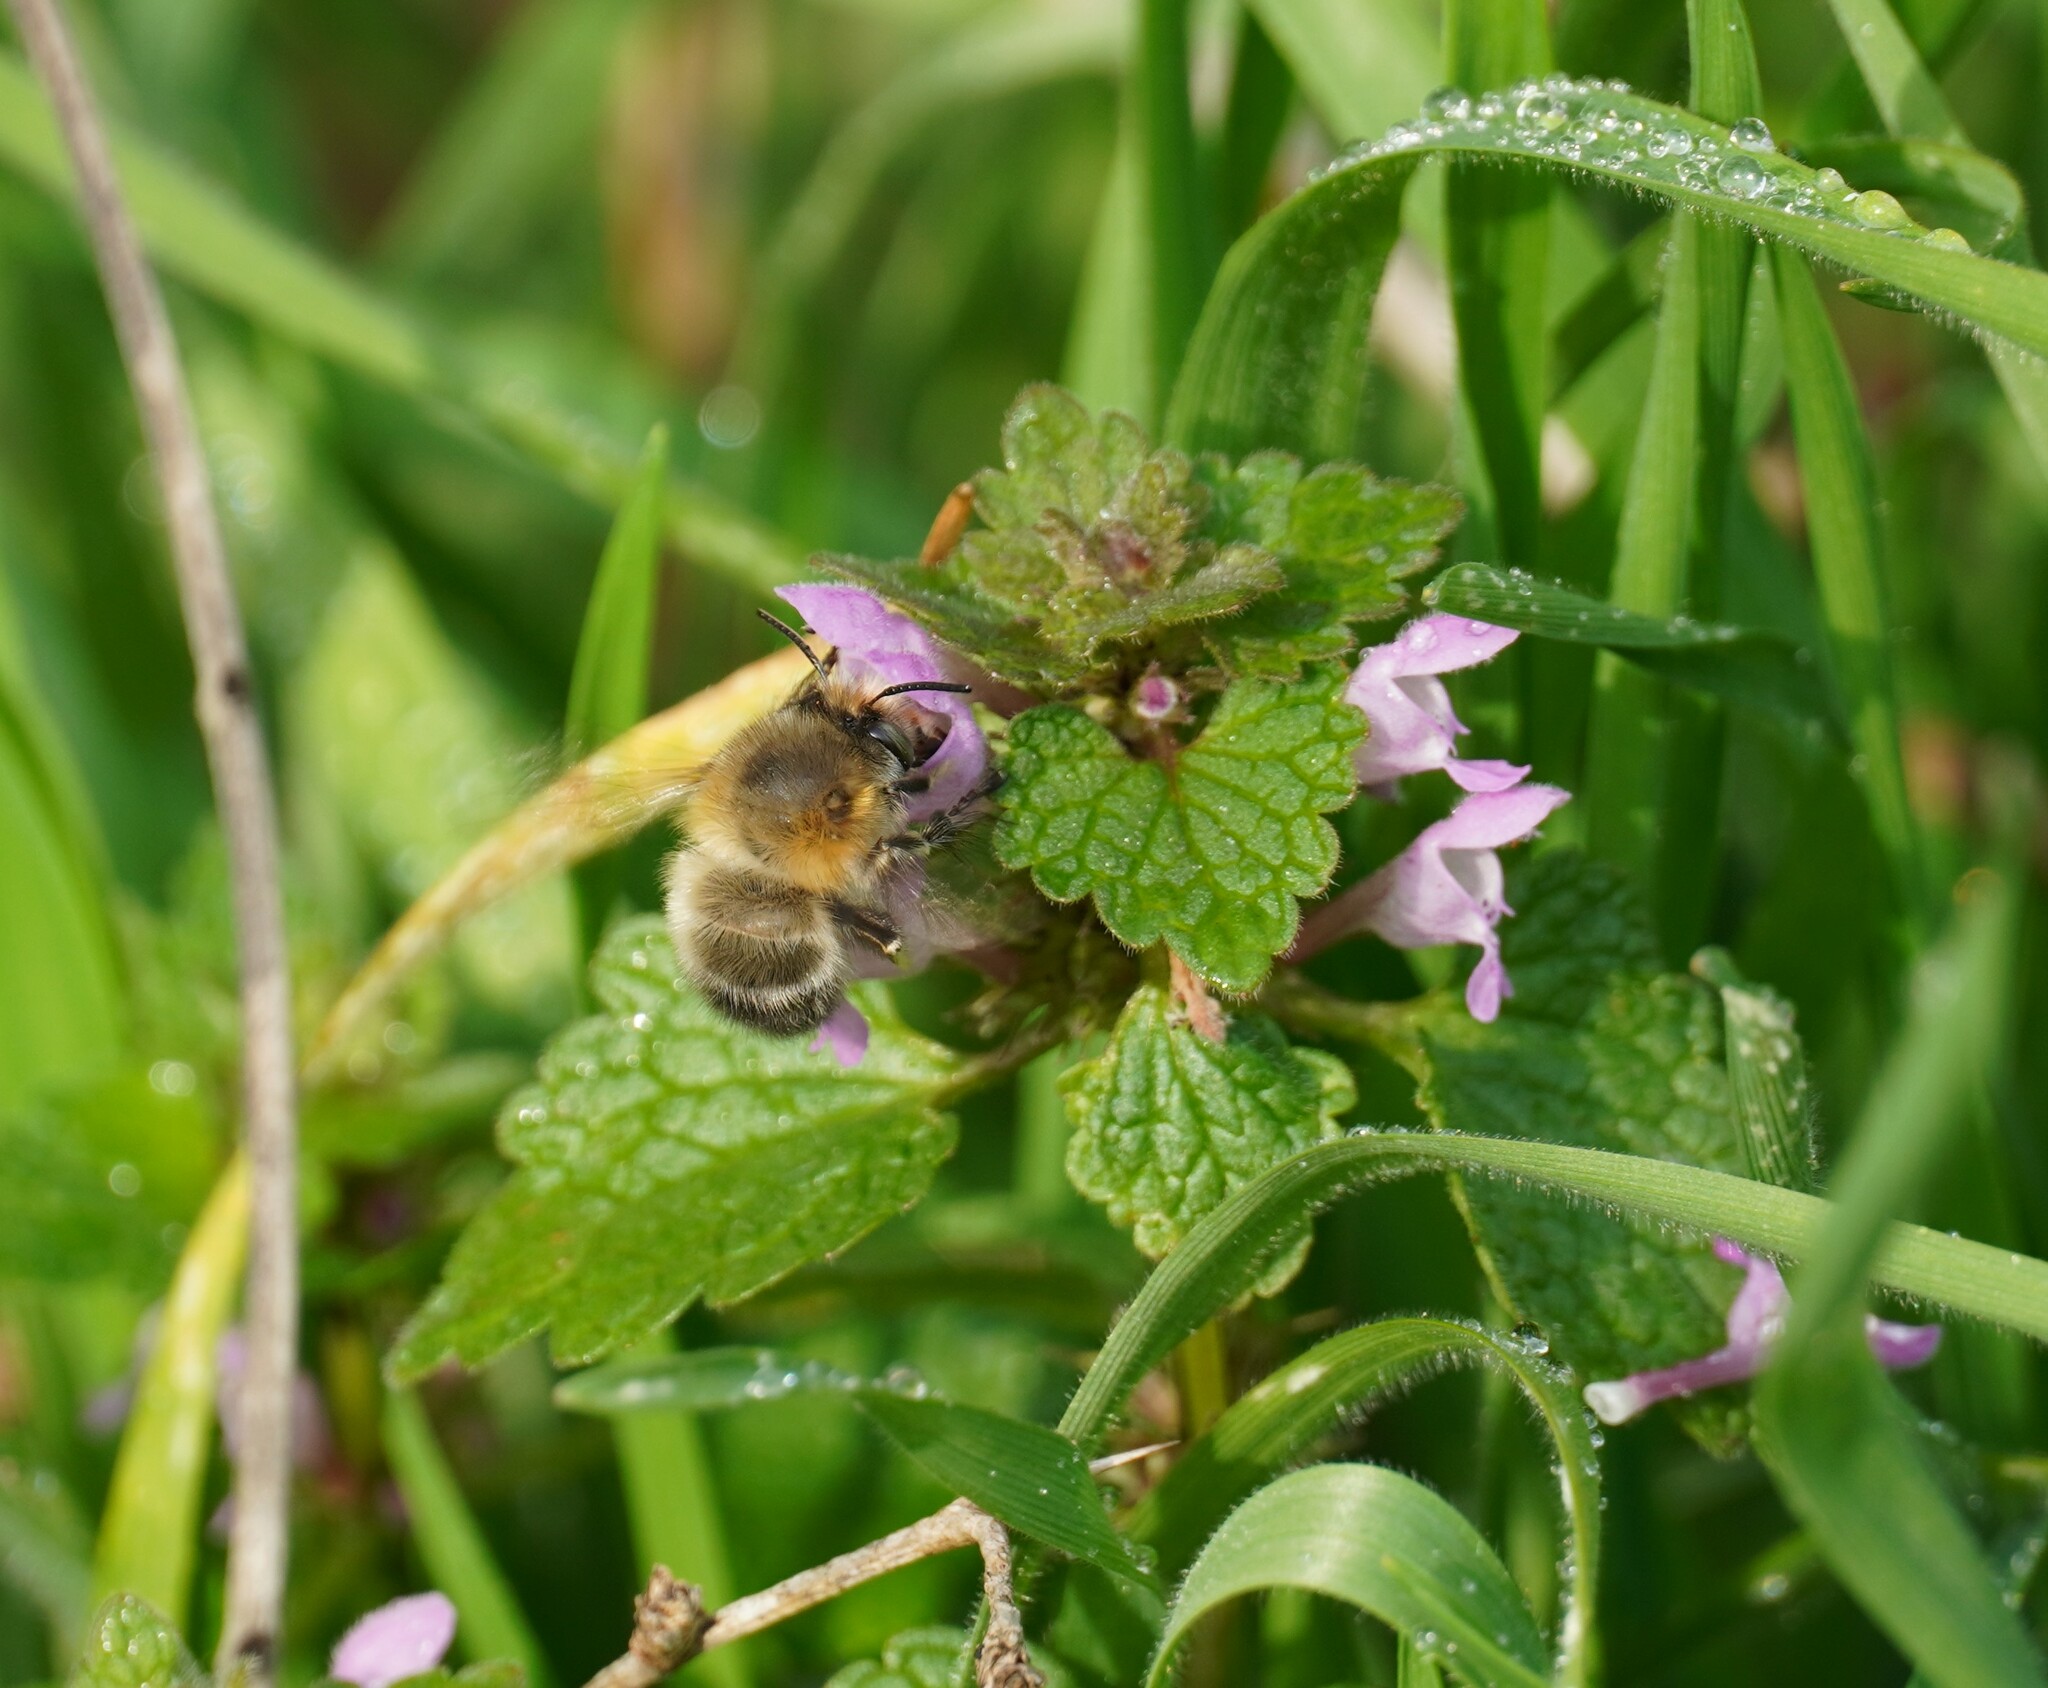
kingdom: Animalia
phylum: Arthropoda
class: Insecta
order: Hymenoptera
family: Apidae
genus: Anthophora
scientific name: Anthophora plumipes
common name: Hairy-footed flower bee
